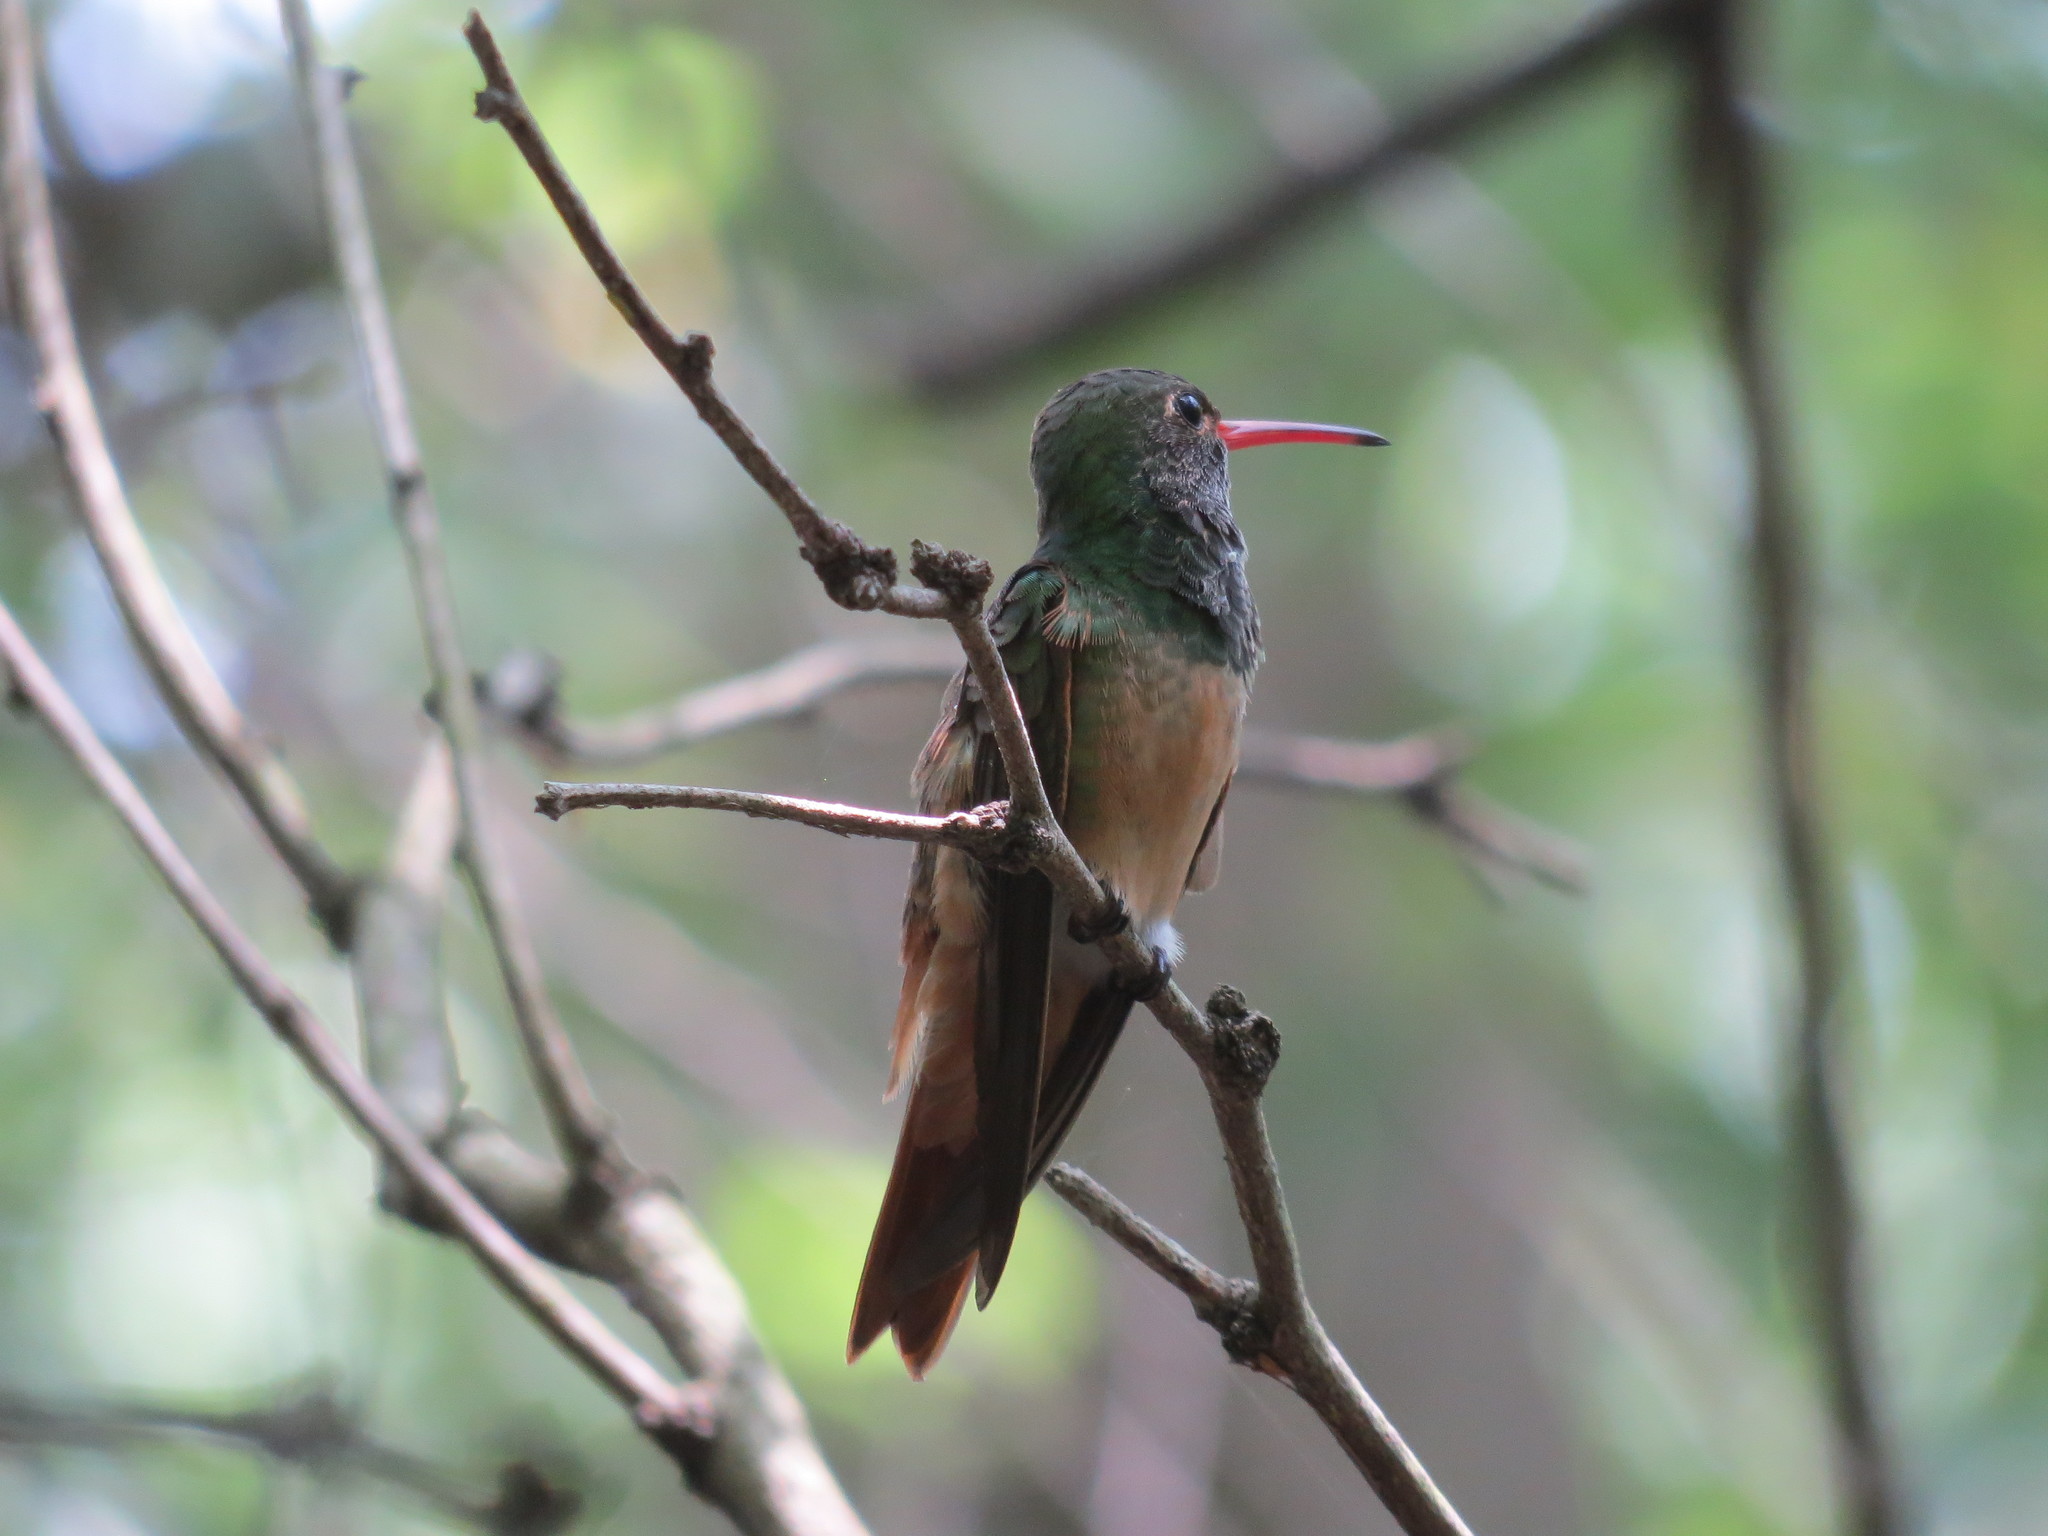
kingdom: Animalia
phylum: Chordata
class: Aves
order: Apodiformes
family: Trochilidae
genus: Amazilia
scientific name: Amazilia yucatanensis
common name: Buff-bellied hummingbird
